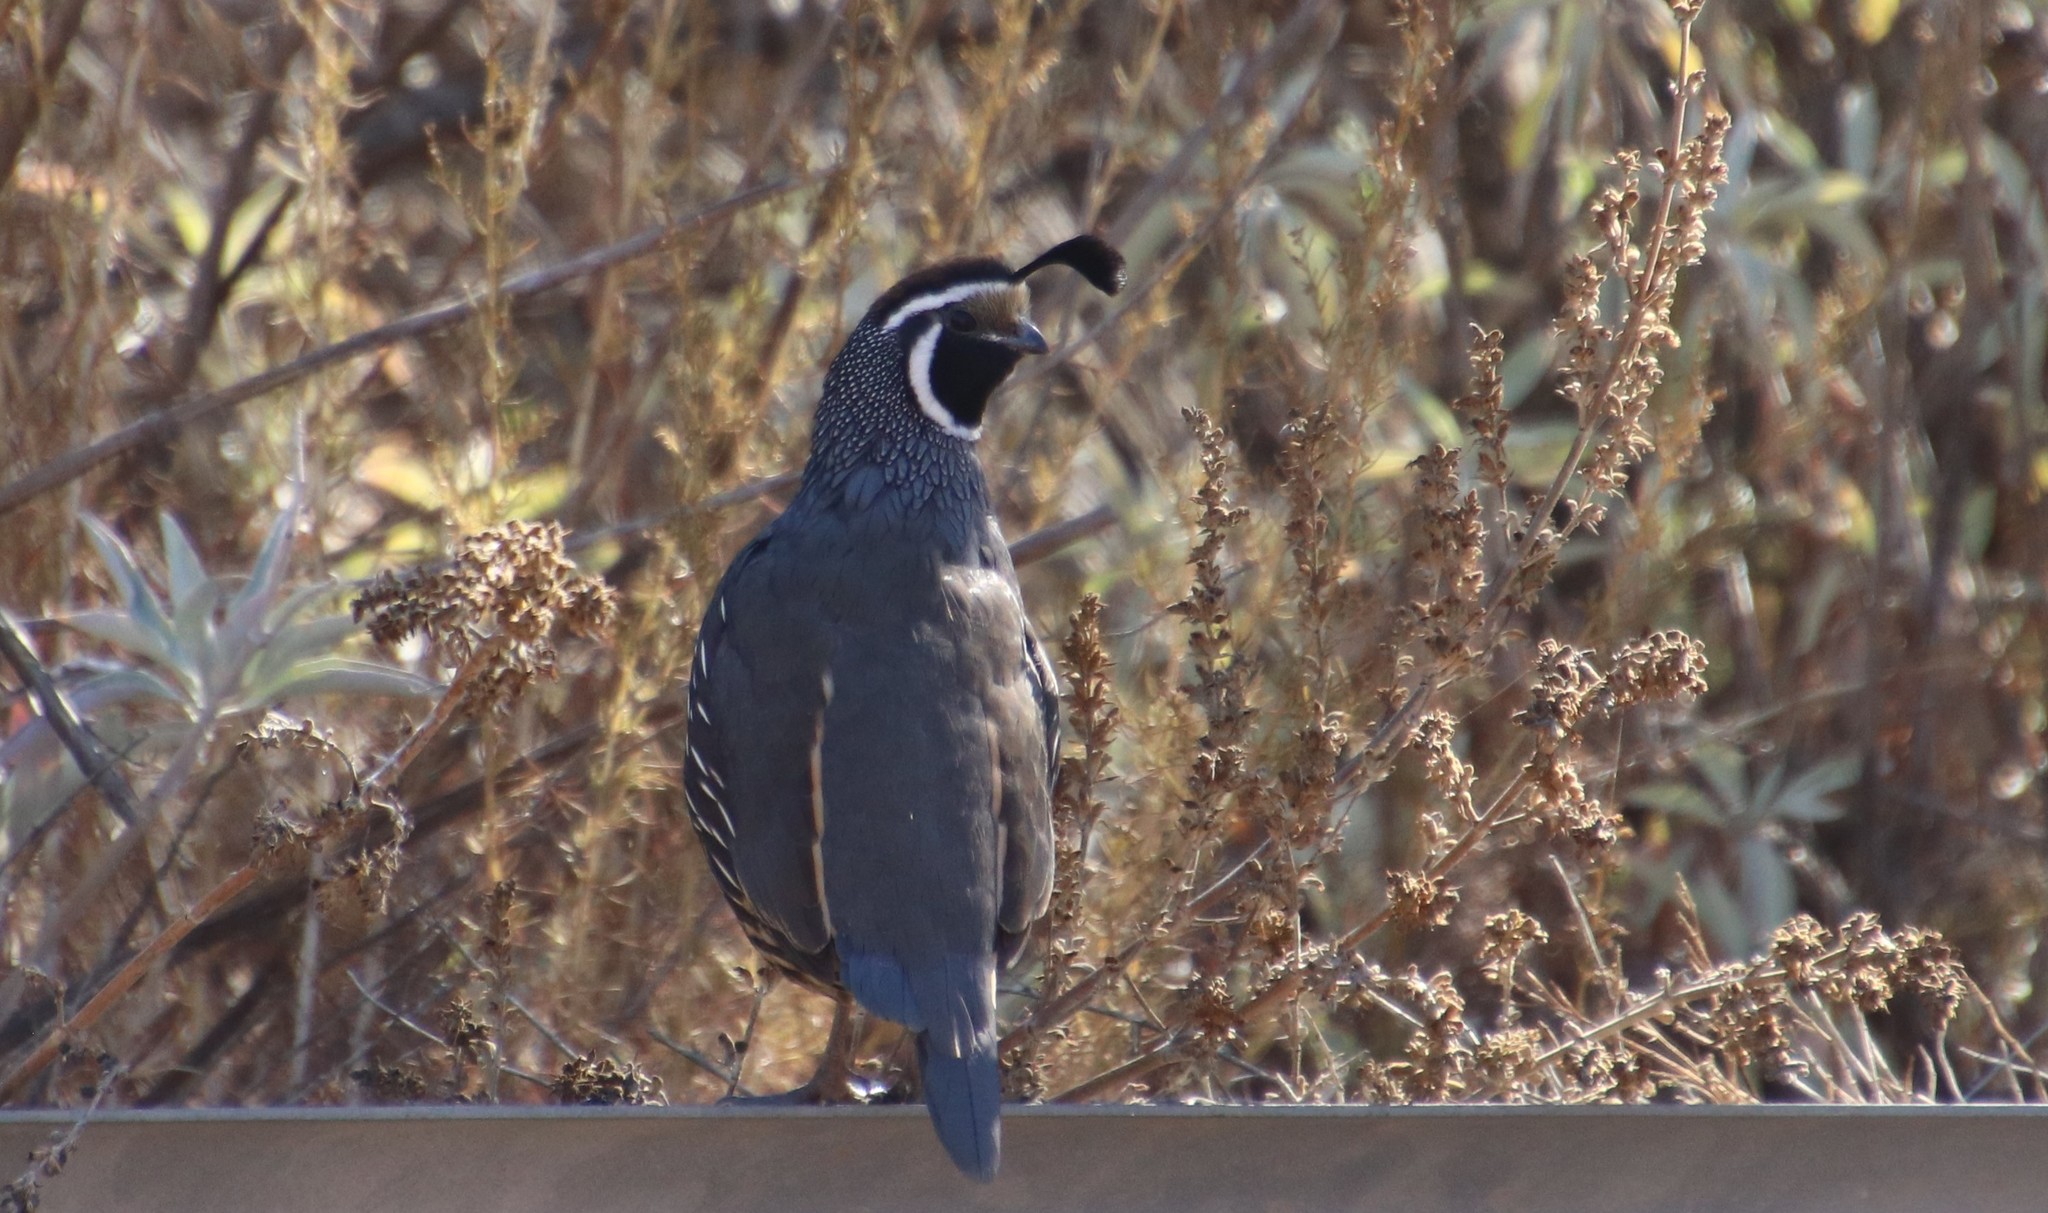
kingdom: Animalia
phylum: Chordata
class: Aves
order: Galliformes
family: Odontophoridae
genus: Callipepla
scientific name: Callipepla californica
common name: California quail
